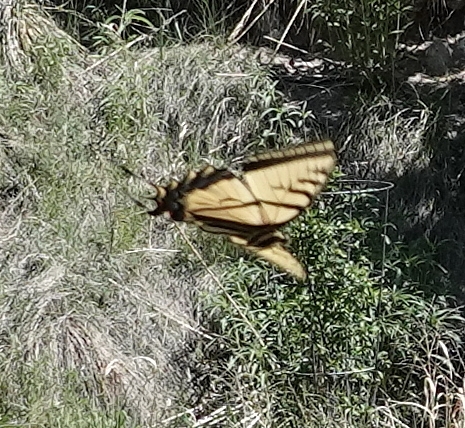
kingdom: Animalia
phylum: Arthropoda
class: Insecta
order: Lepidoptera
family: Papilionidae
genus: Papilio
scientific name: Papilio multicaudata
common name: Two-tailed tiger swallowtail
